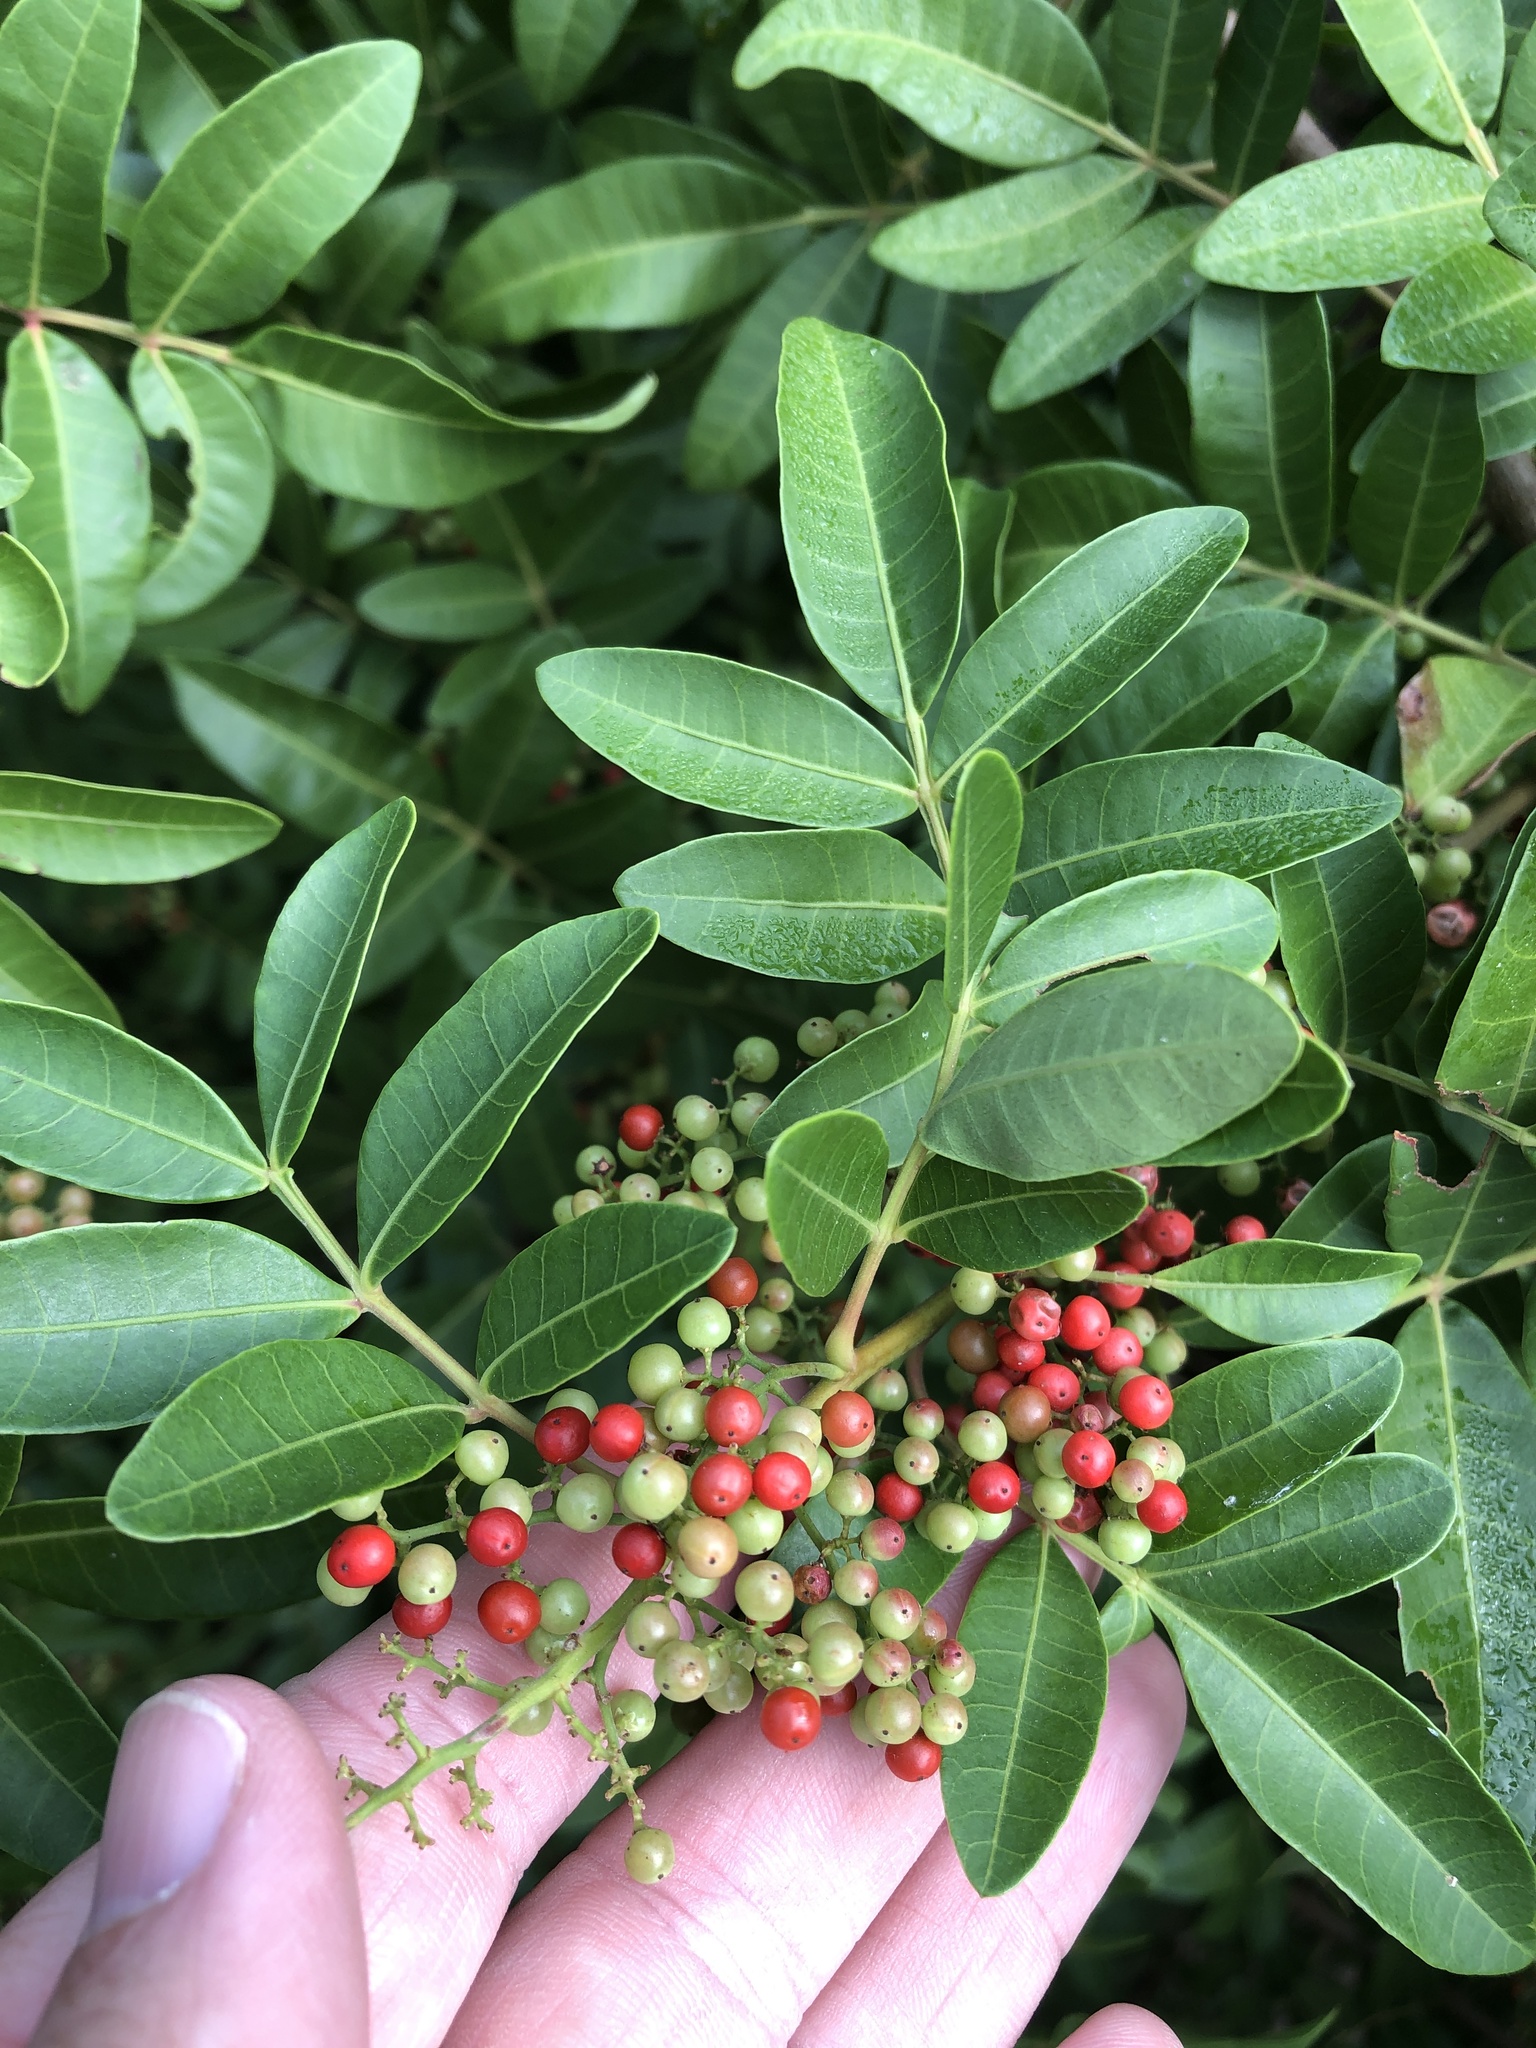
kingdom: Plantae
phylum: Tracheophyta
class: Magnoliopsida
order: Sapindales
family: Anacardiaceae
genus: Schinus
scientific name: Schinus terebinthifolia
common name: Brazilian peppertree
